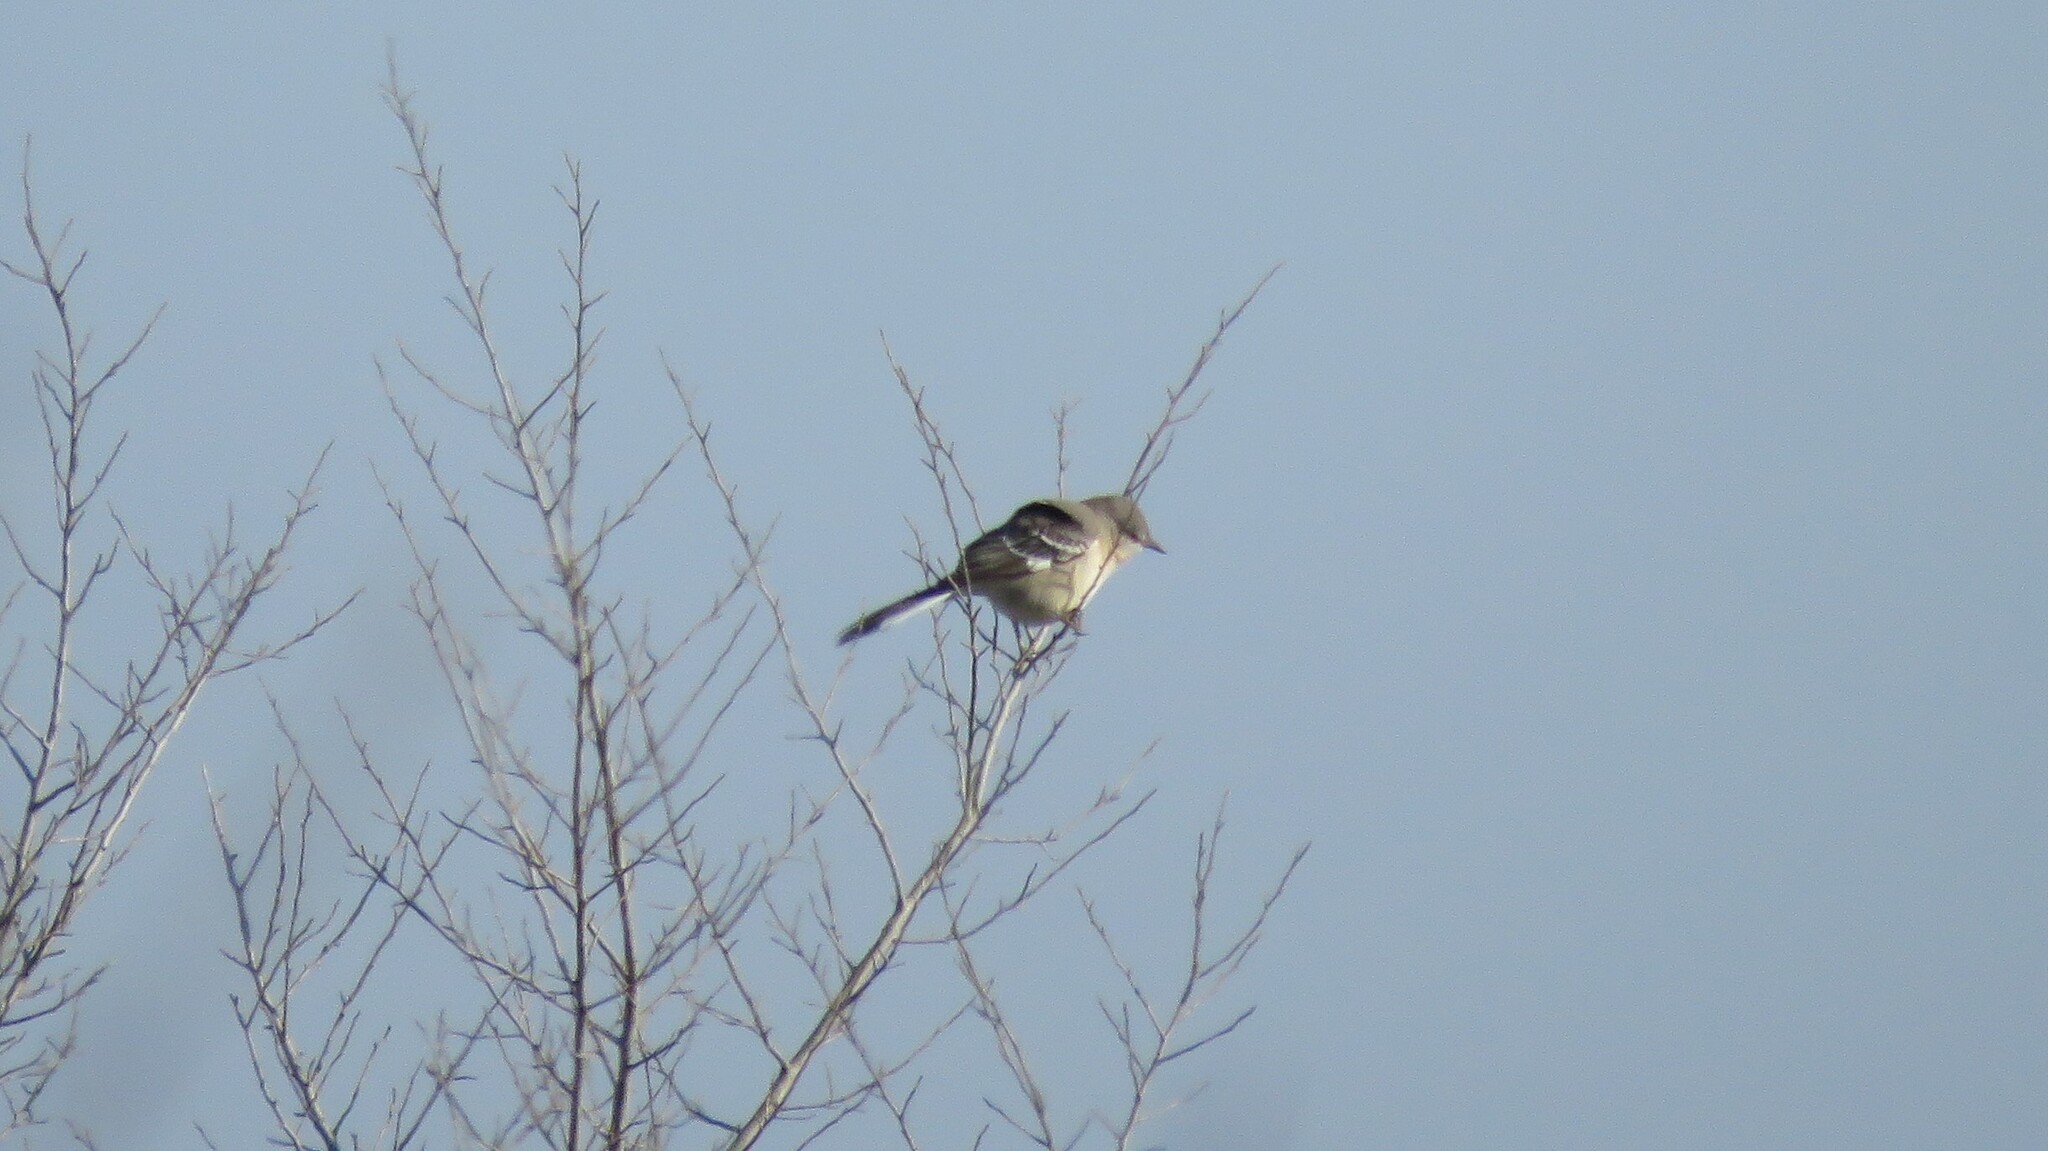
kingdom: Animalia
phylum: Chordata
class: Aves
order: Passeriformes
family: Mimidae
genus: Mimus
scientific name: Mimus polyglottos
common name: Northern mockingbird
